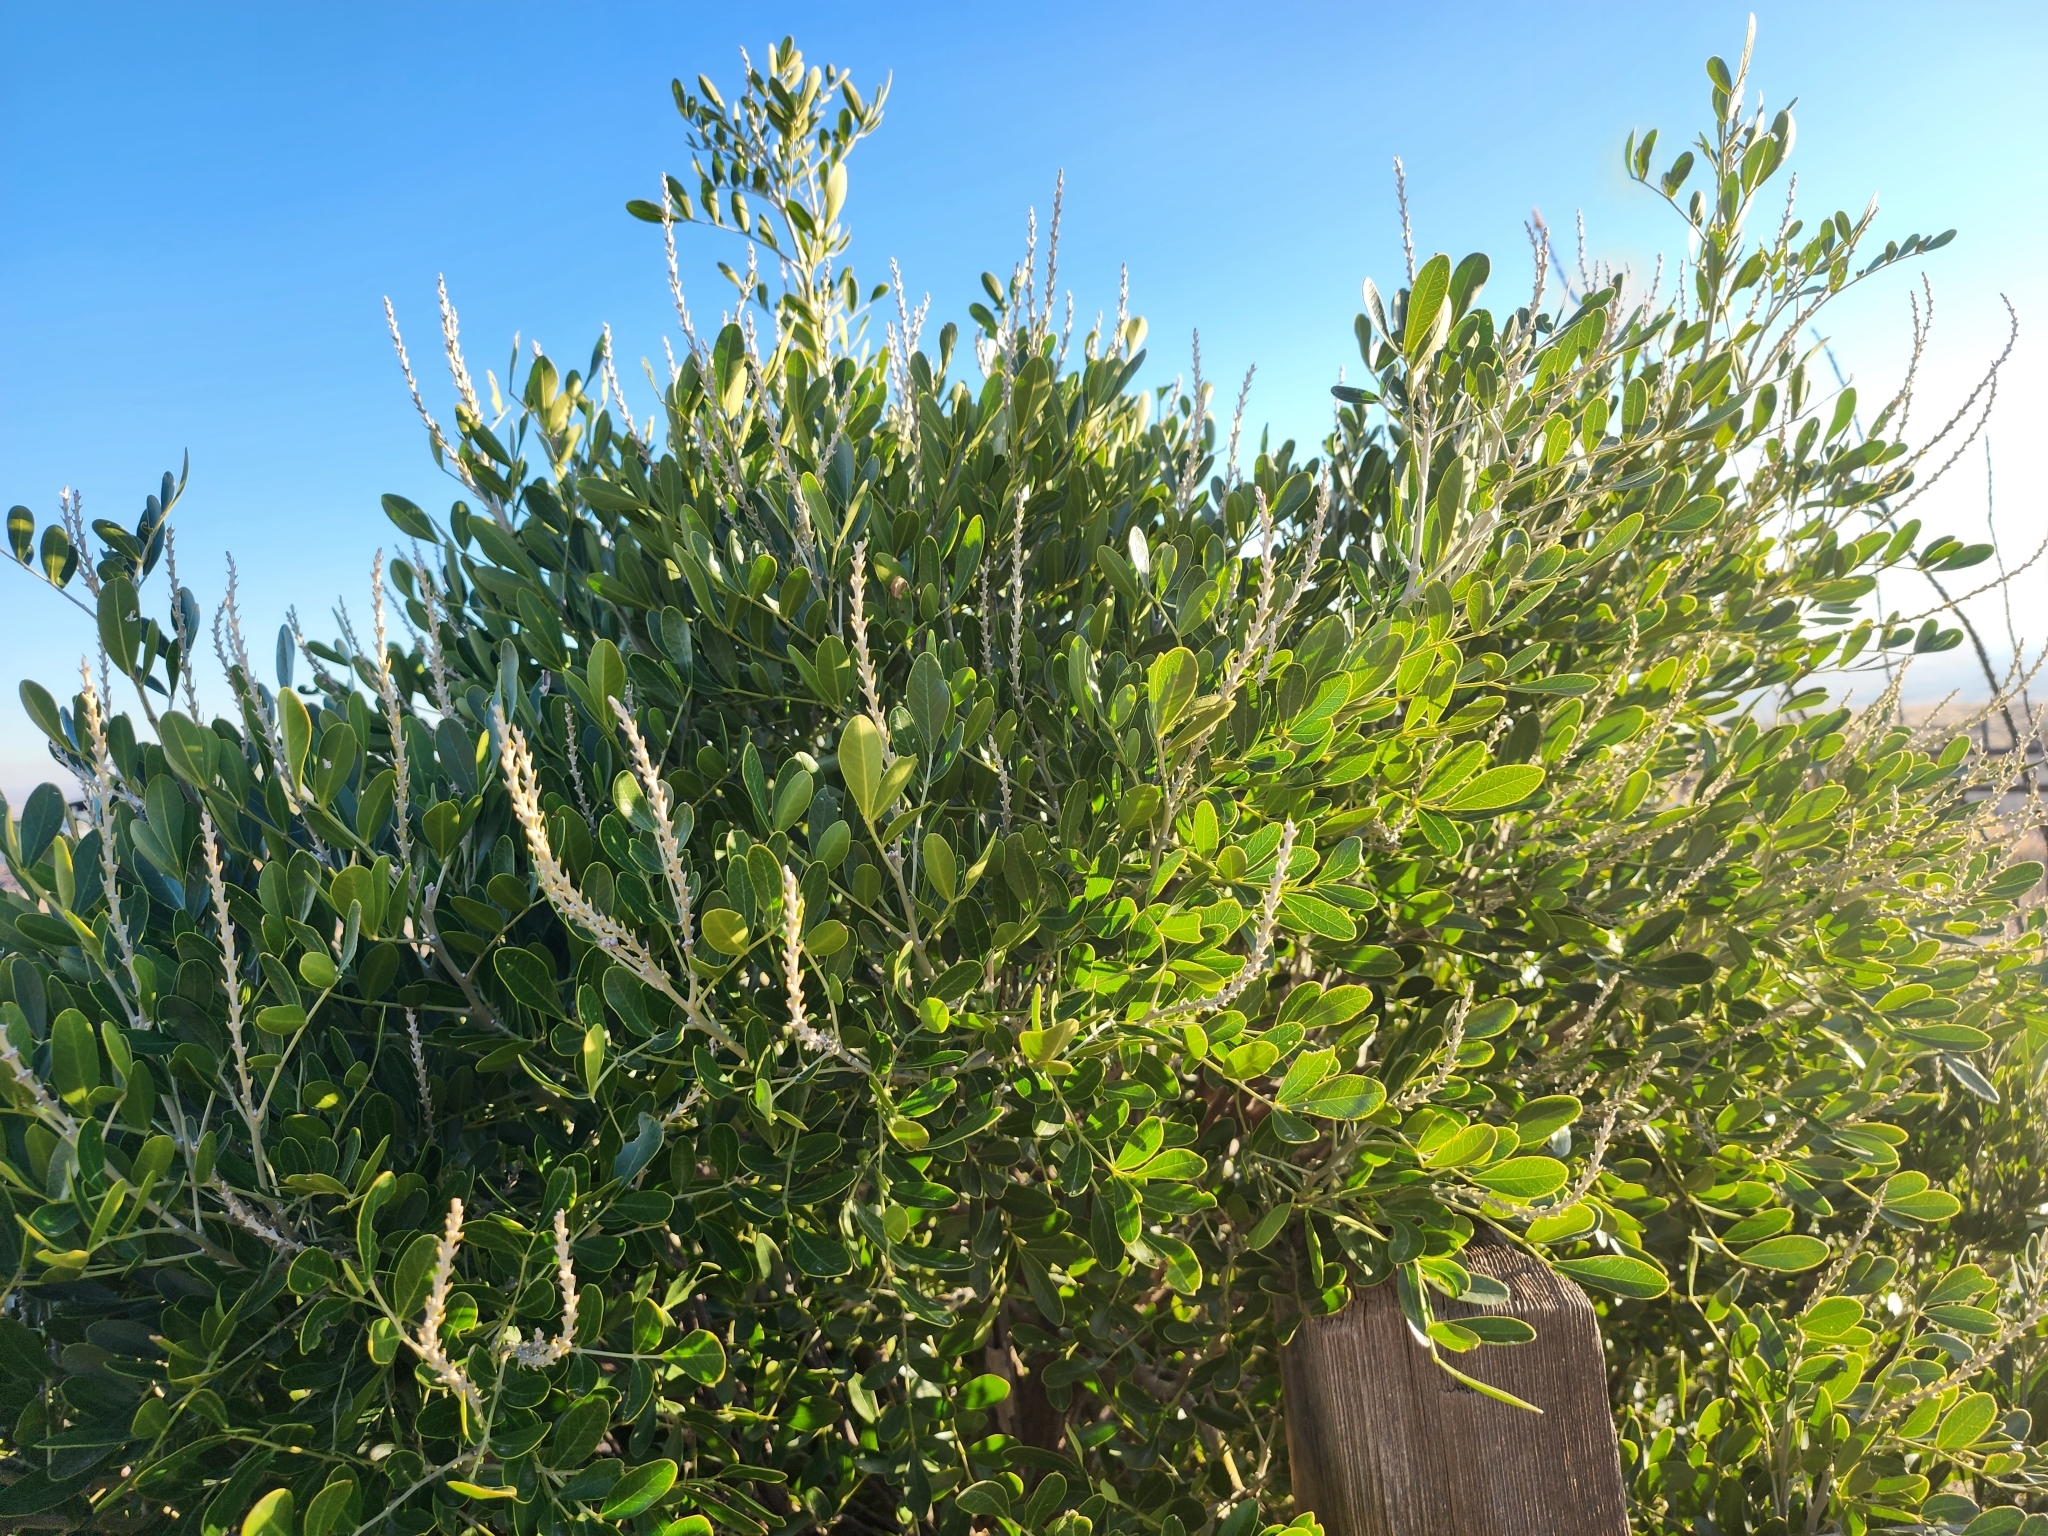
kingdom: Plantae
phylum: Tracheophyta
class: Magnoliopsida
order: Fabales
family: Fabaceae
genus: Dermatophyllum
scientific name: Dermatophyllum secundiflorum
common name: Texas-mountain-laurel
